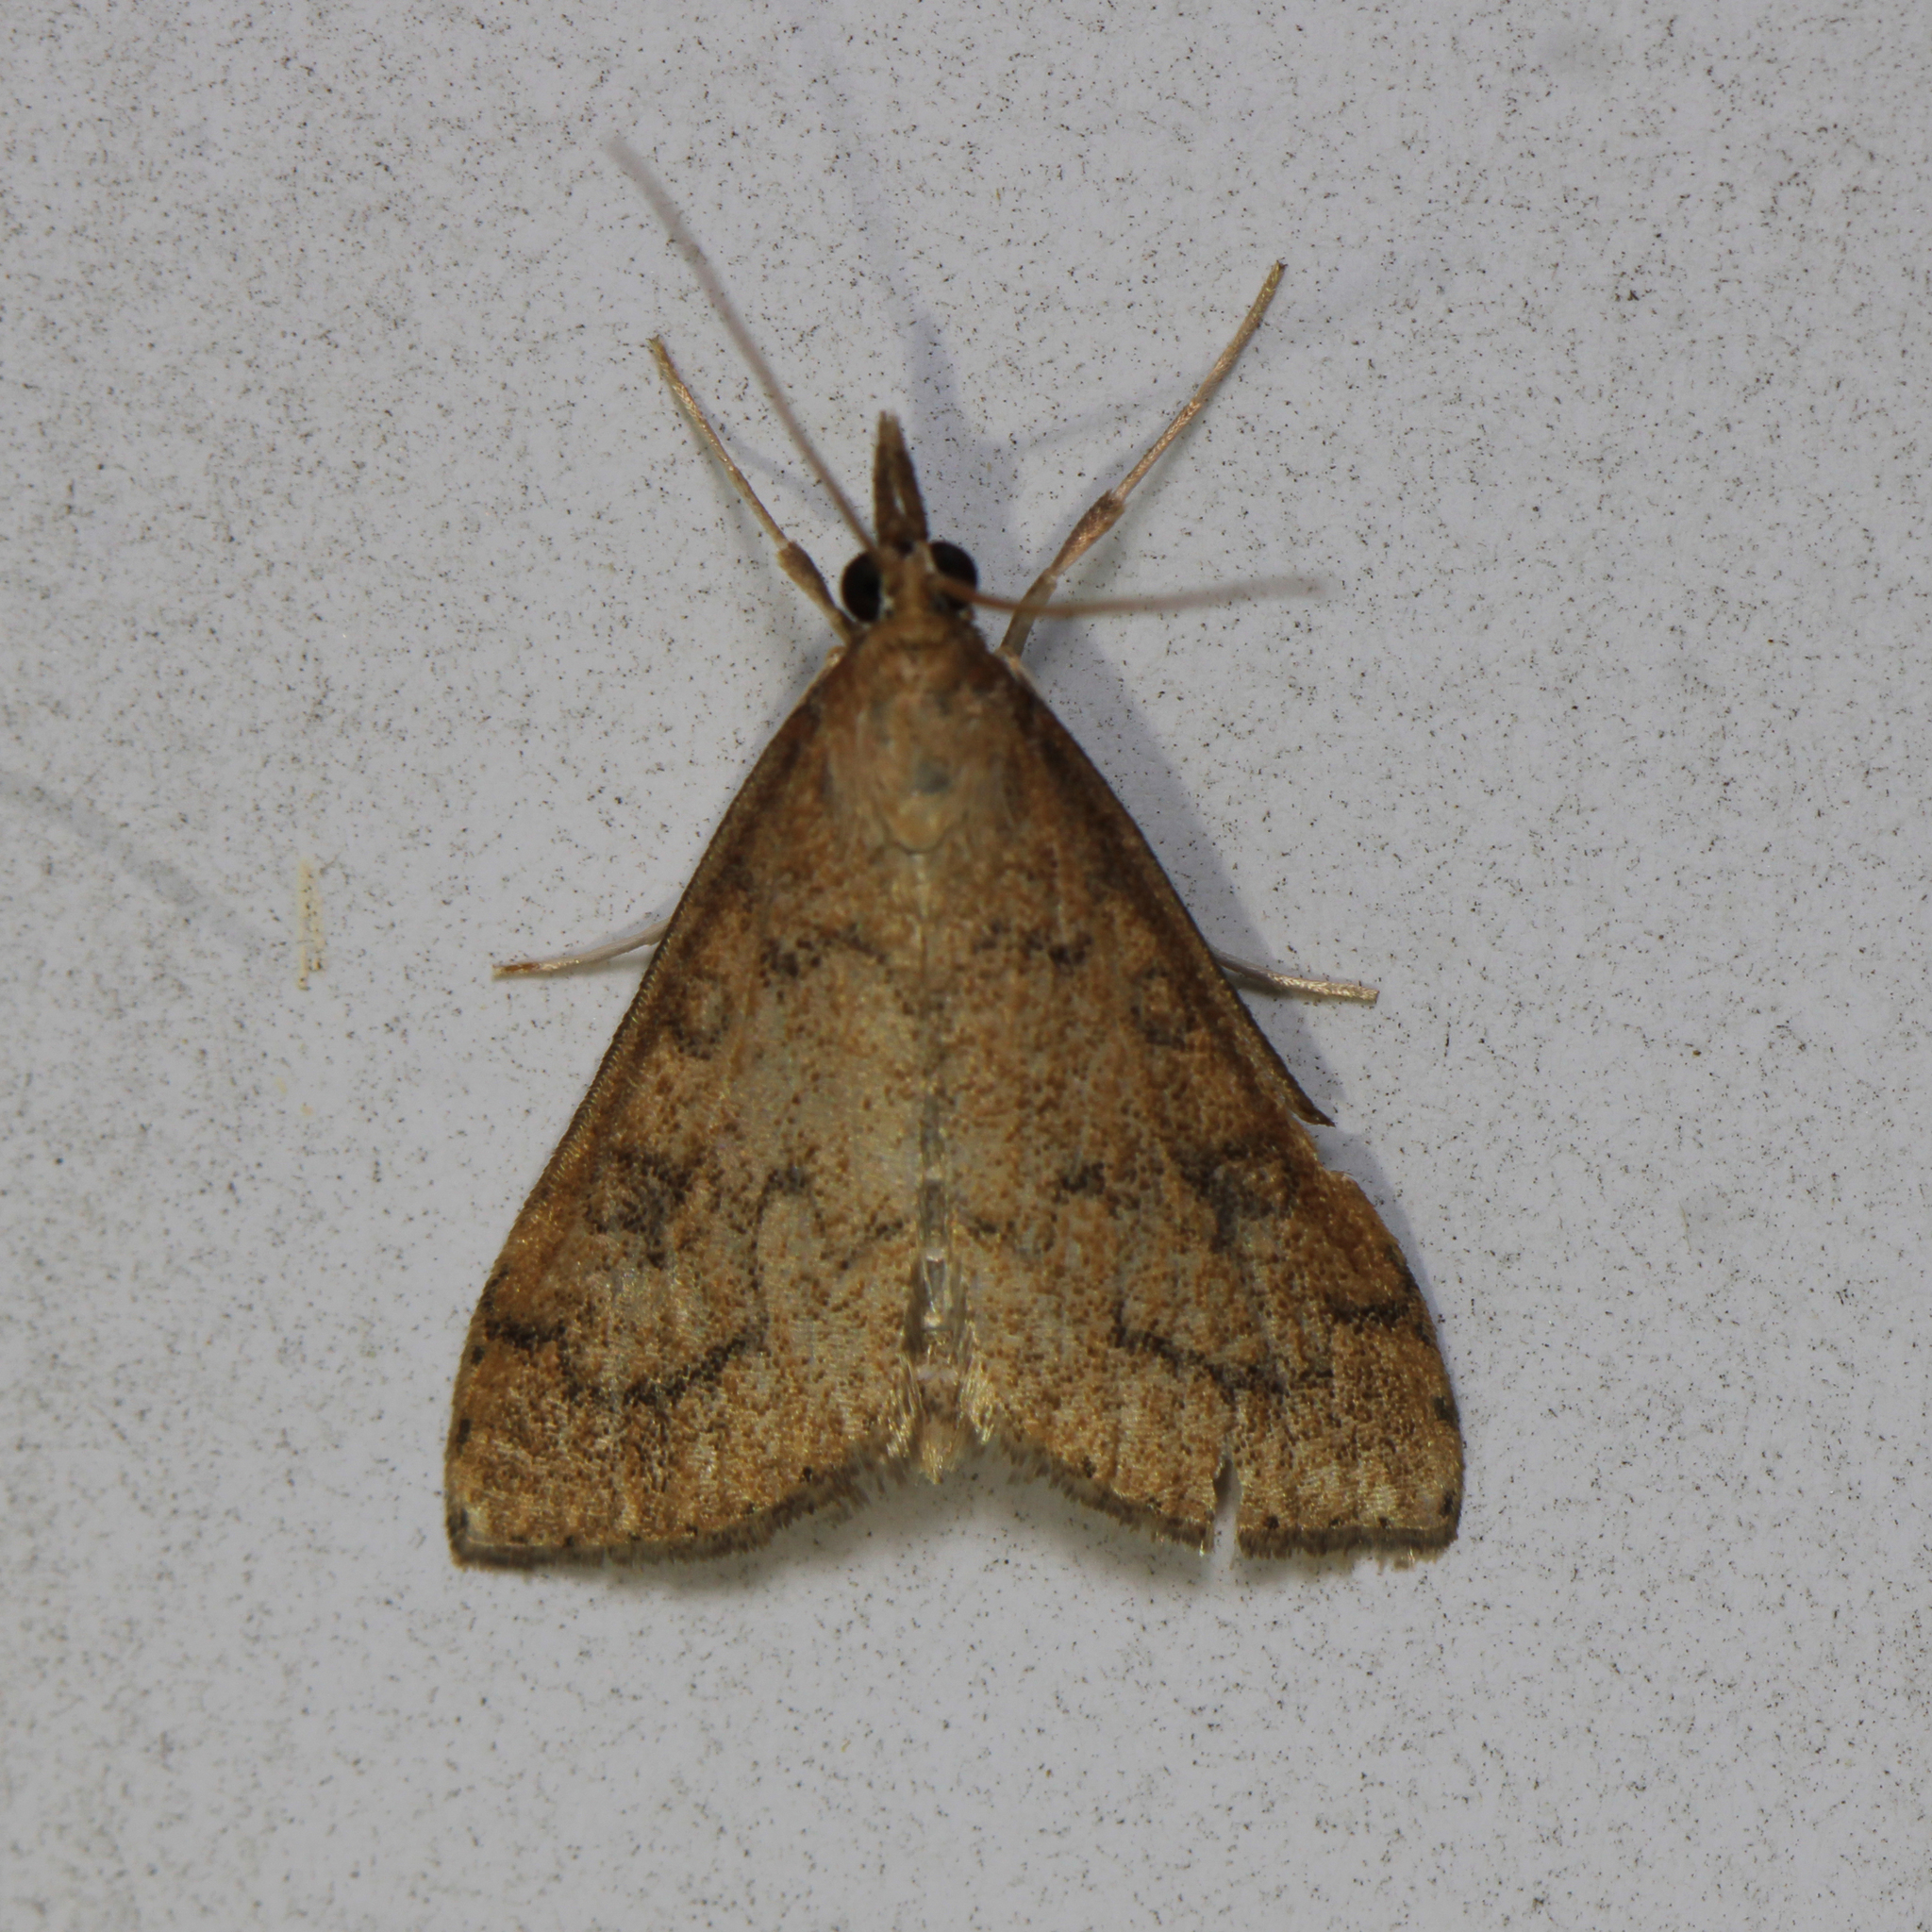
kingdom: Animalia
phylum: Arthropoda
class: Insecta
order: Lepidoptera
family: Crambidae
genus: Udea
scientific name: Udea rubigalis
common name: Celery leaftier moth
